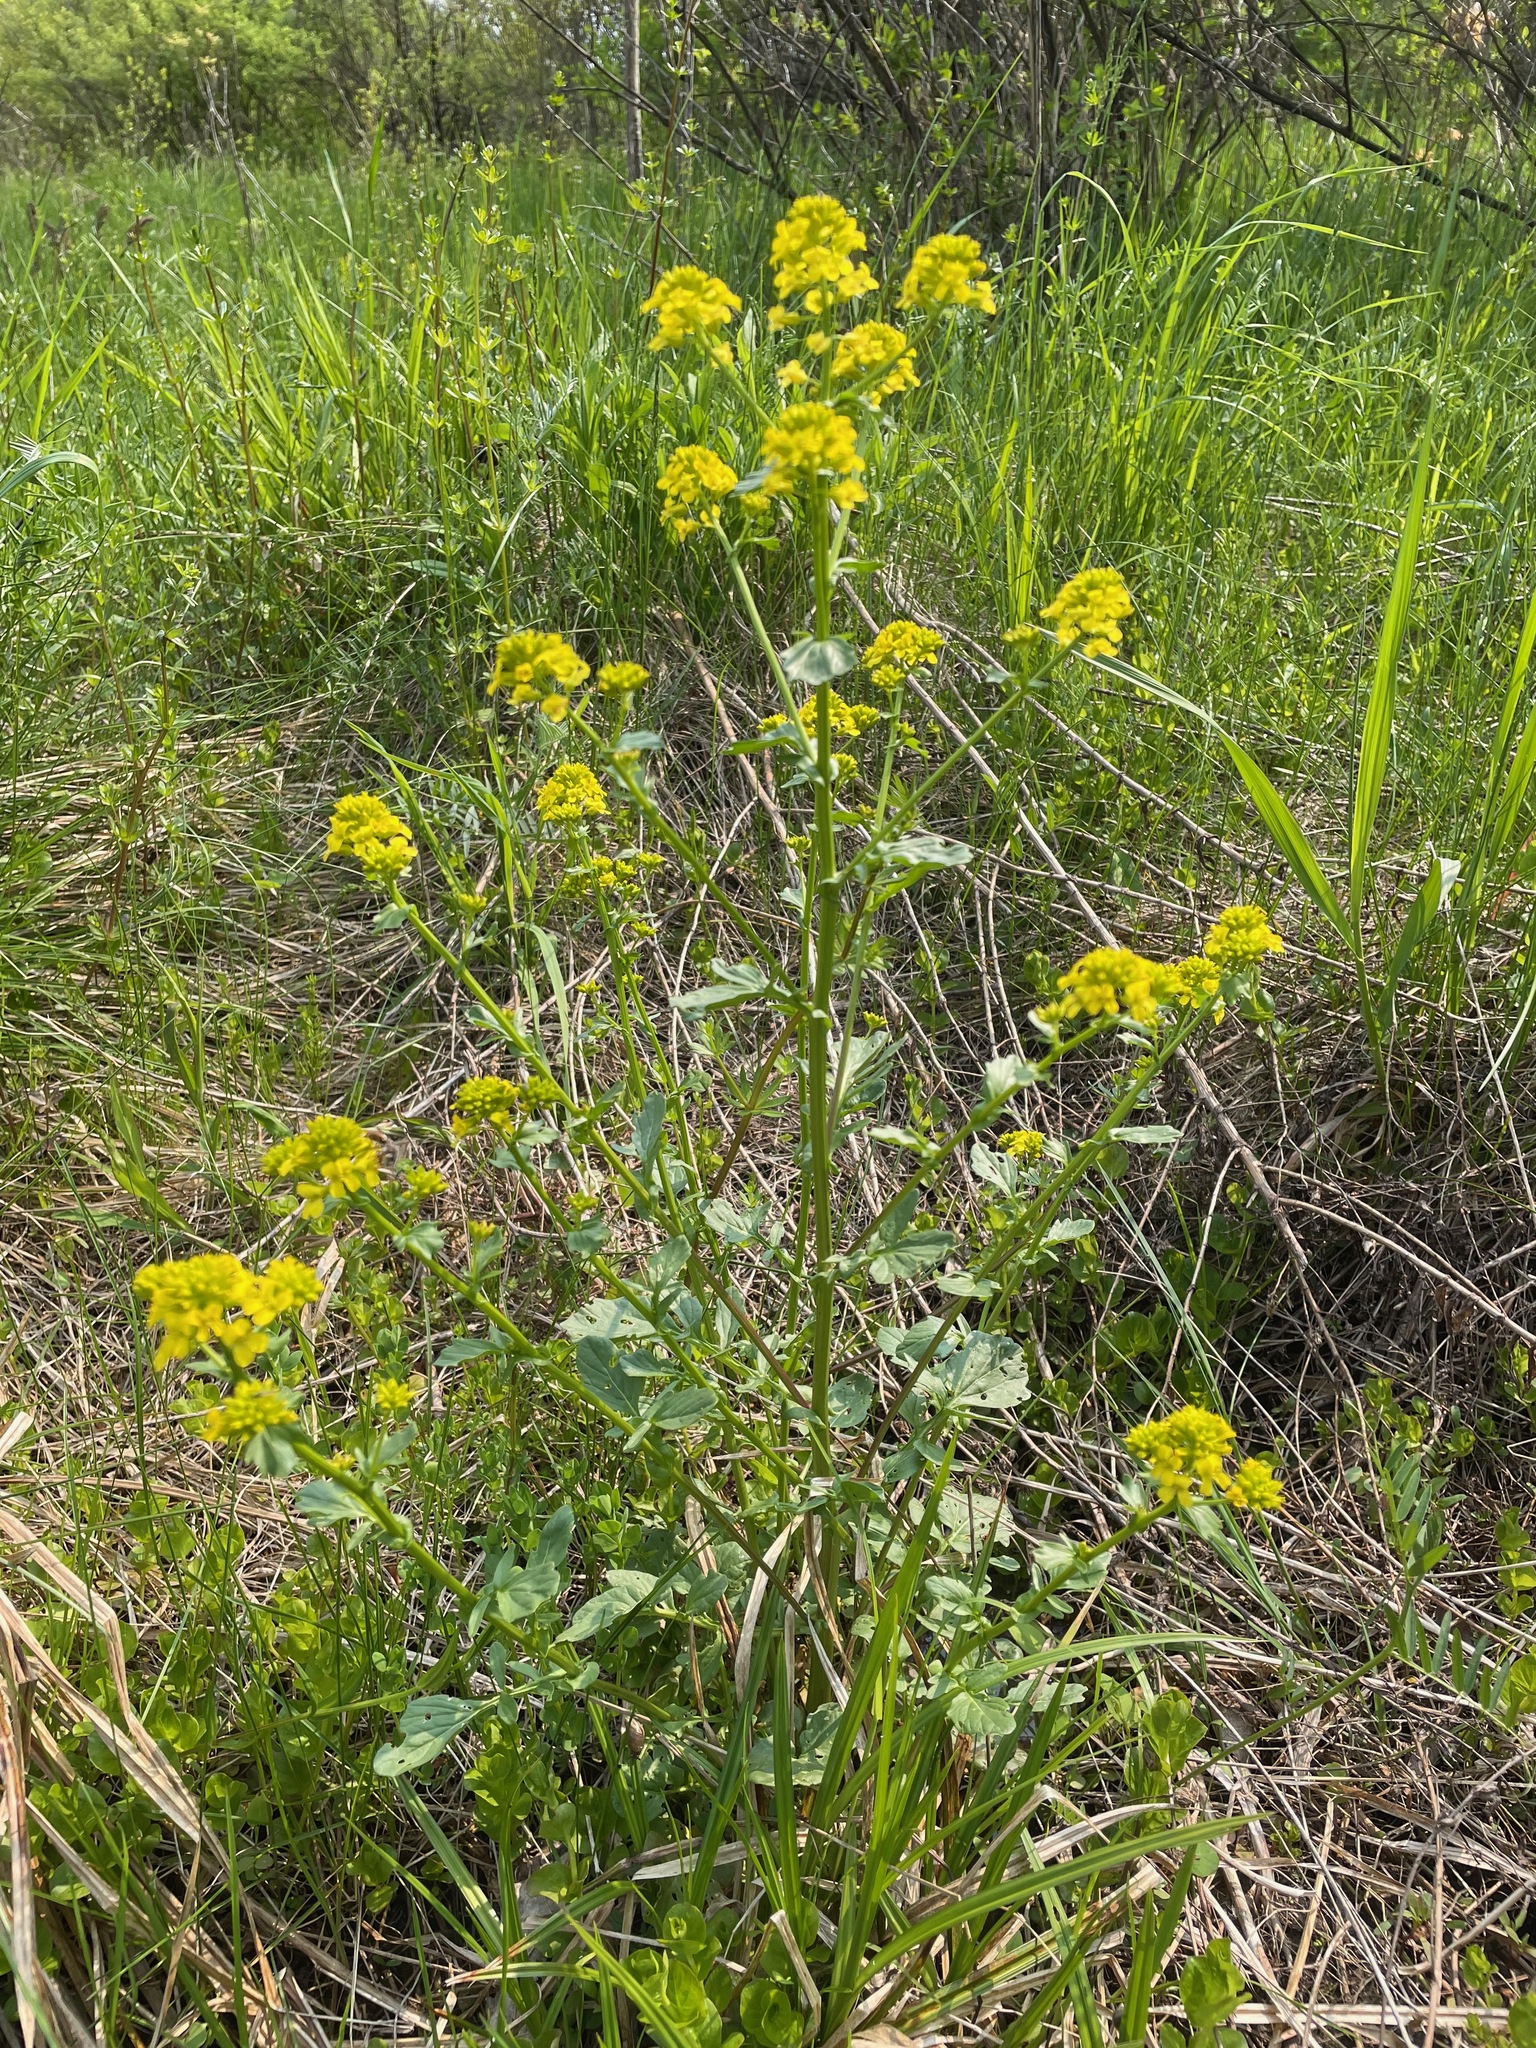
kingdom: Plantae
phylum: Tracheophyta
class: Magnoliopsida
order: Brassicales
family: Brassicaceae
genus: Barbarea
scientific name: Barbarea vulgaris
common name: Cressy-greens
